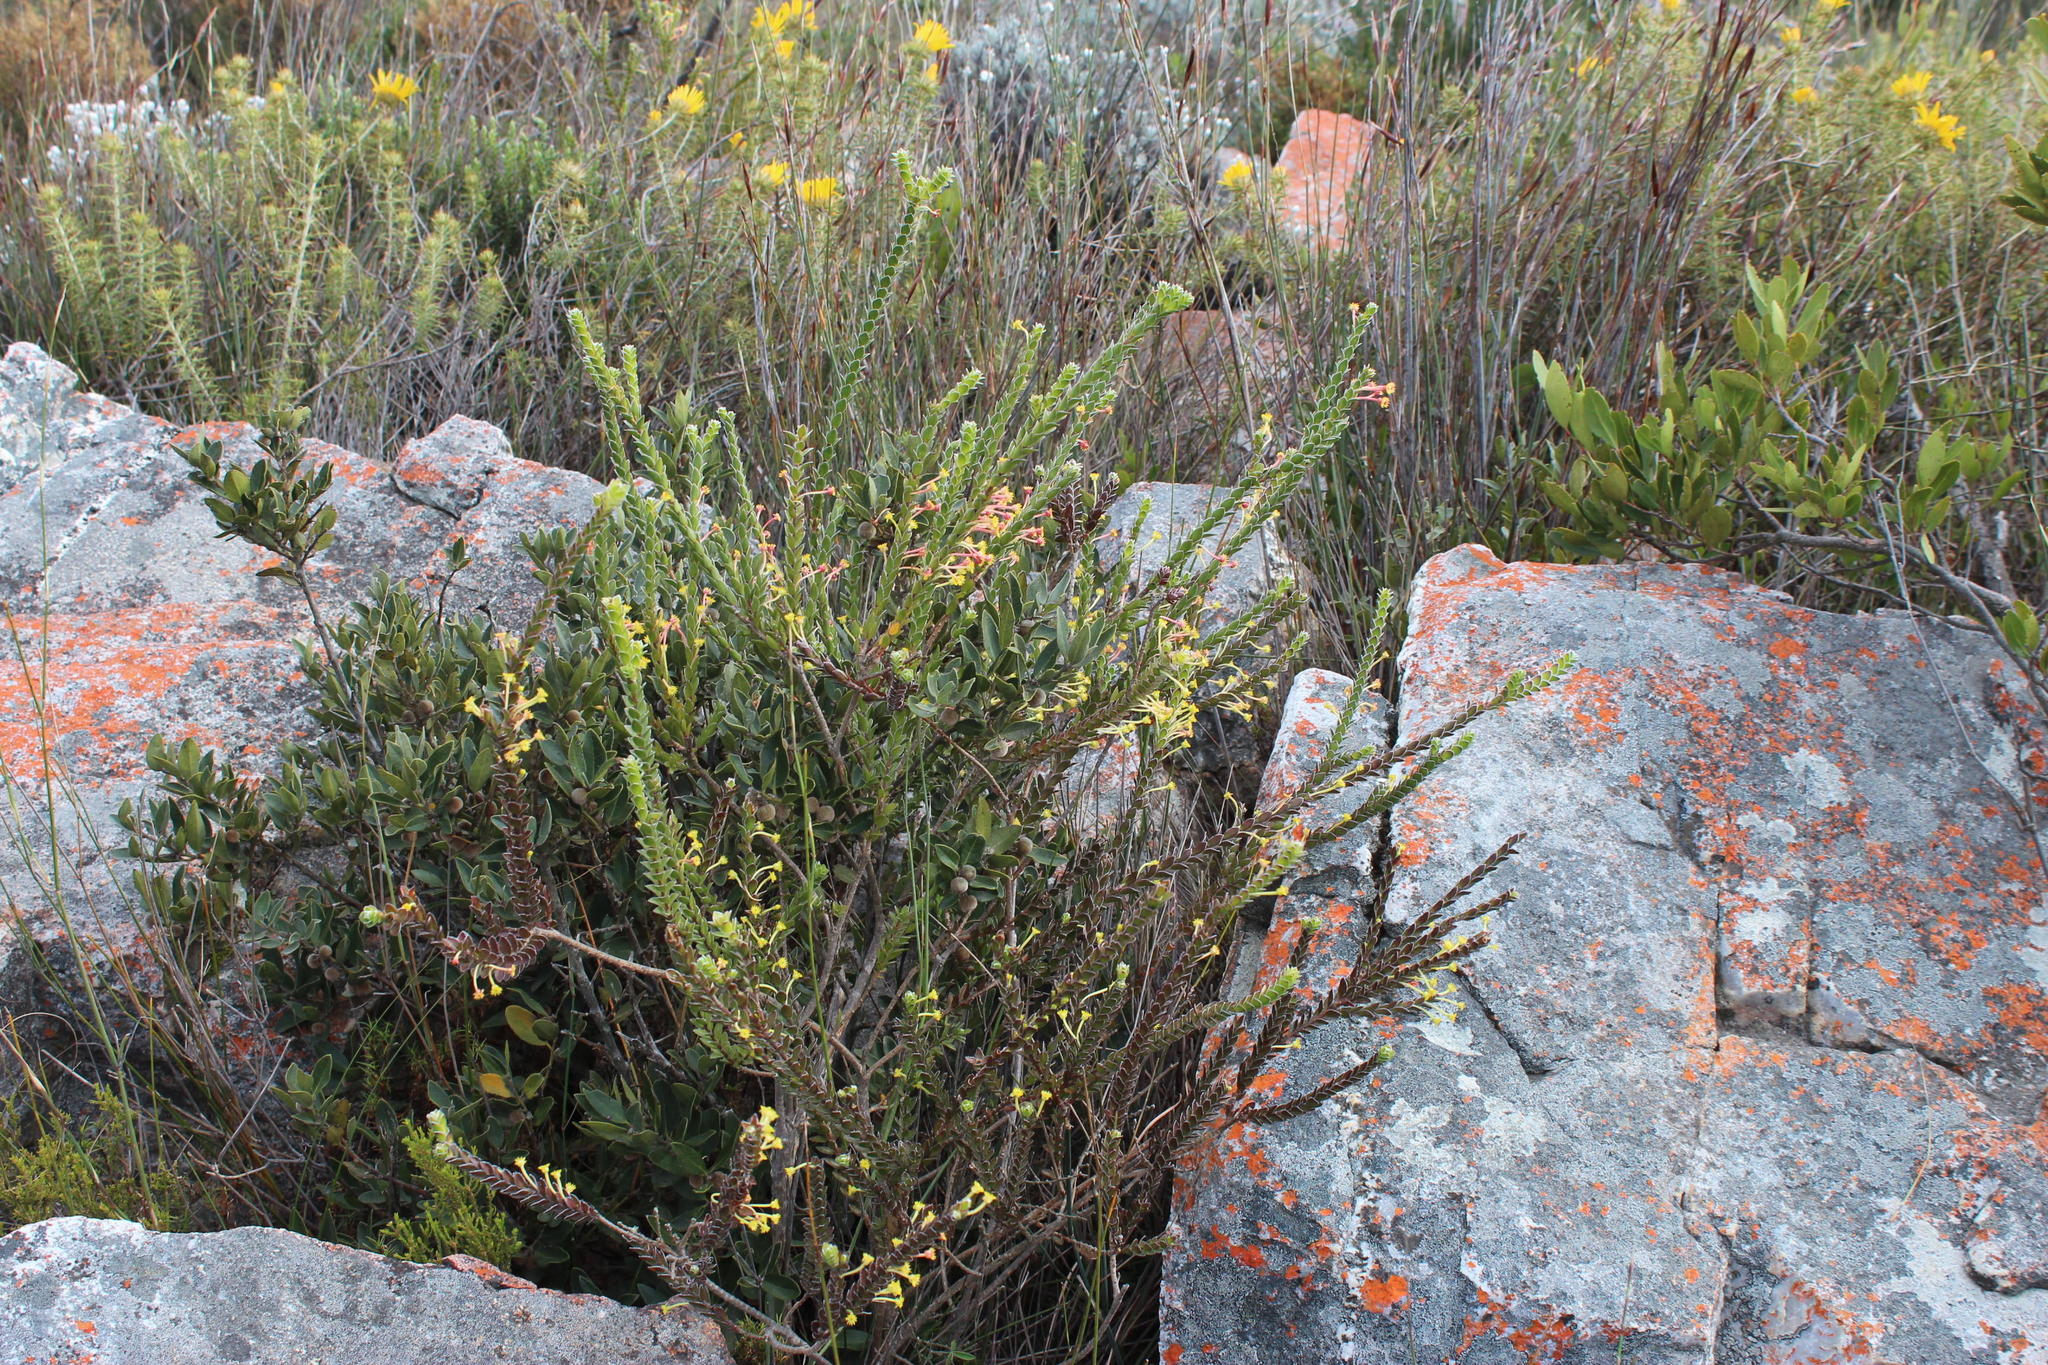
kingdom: Plantae
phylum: Tracheophyta
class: Magnoliopsida
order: Malvales
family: Thymelaeaceae
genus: Struthiola
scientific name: Struthiola argentea
